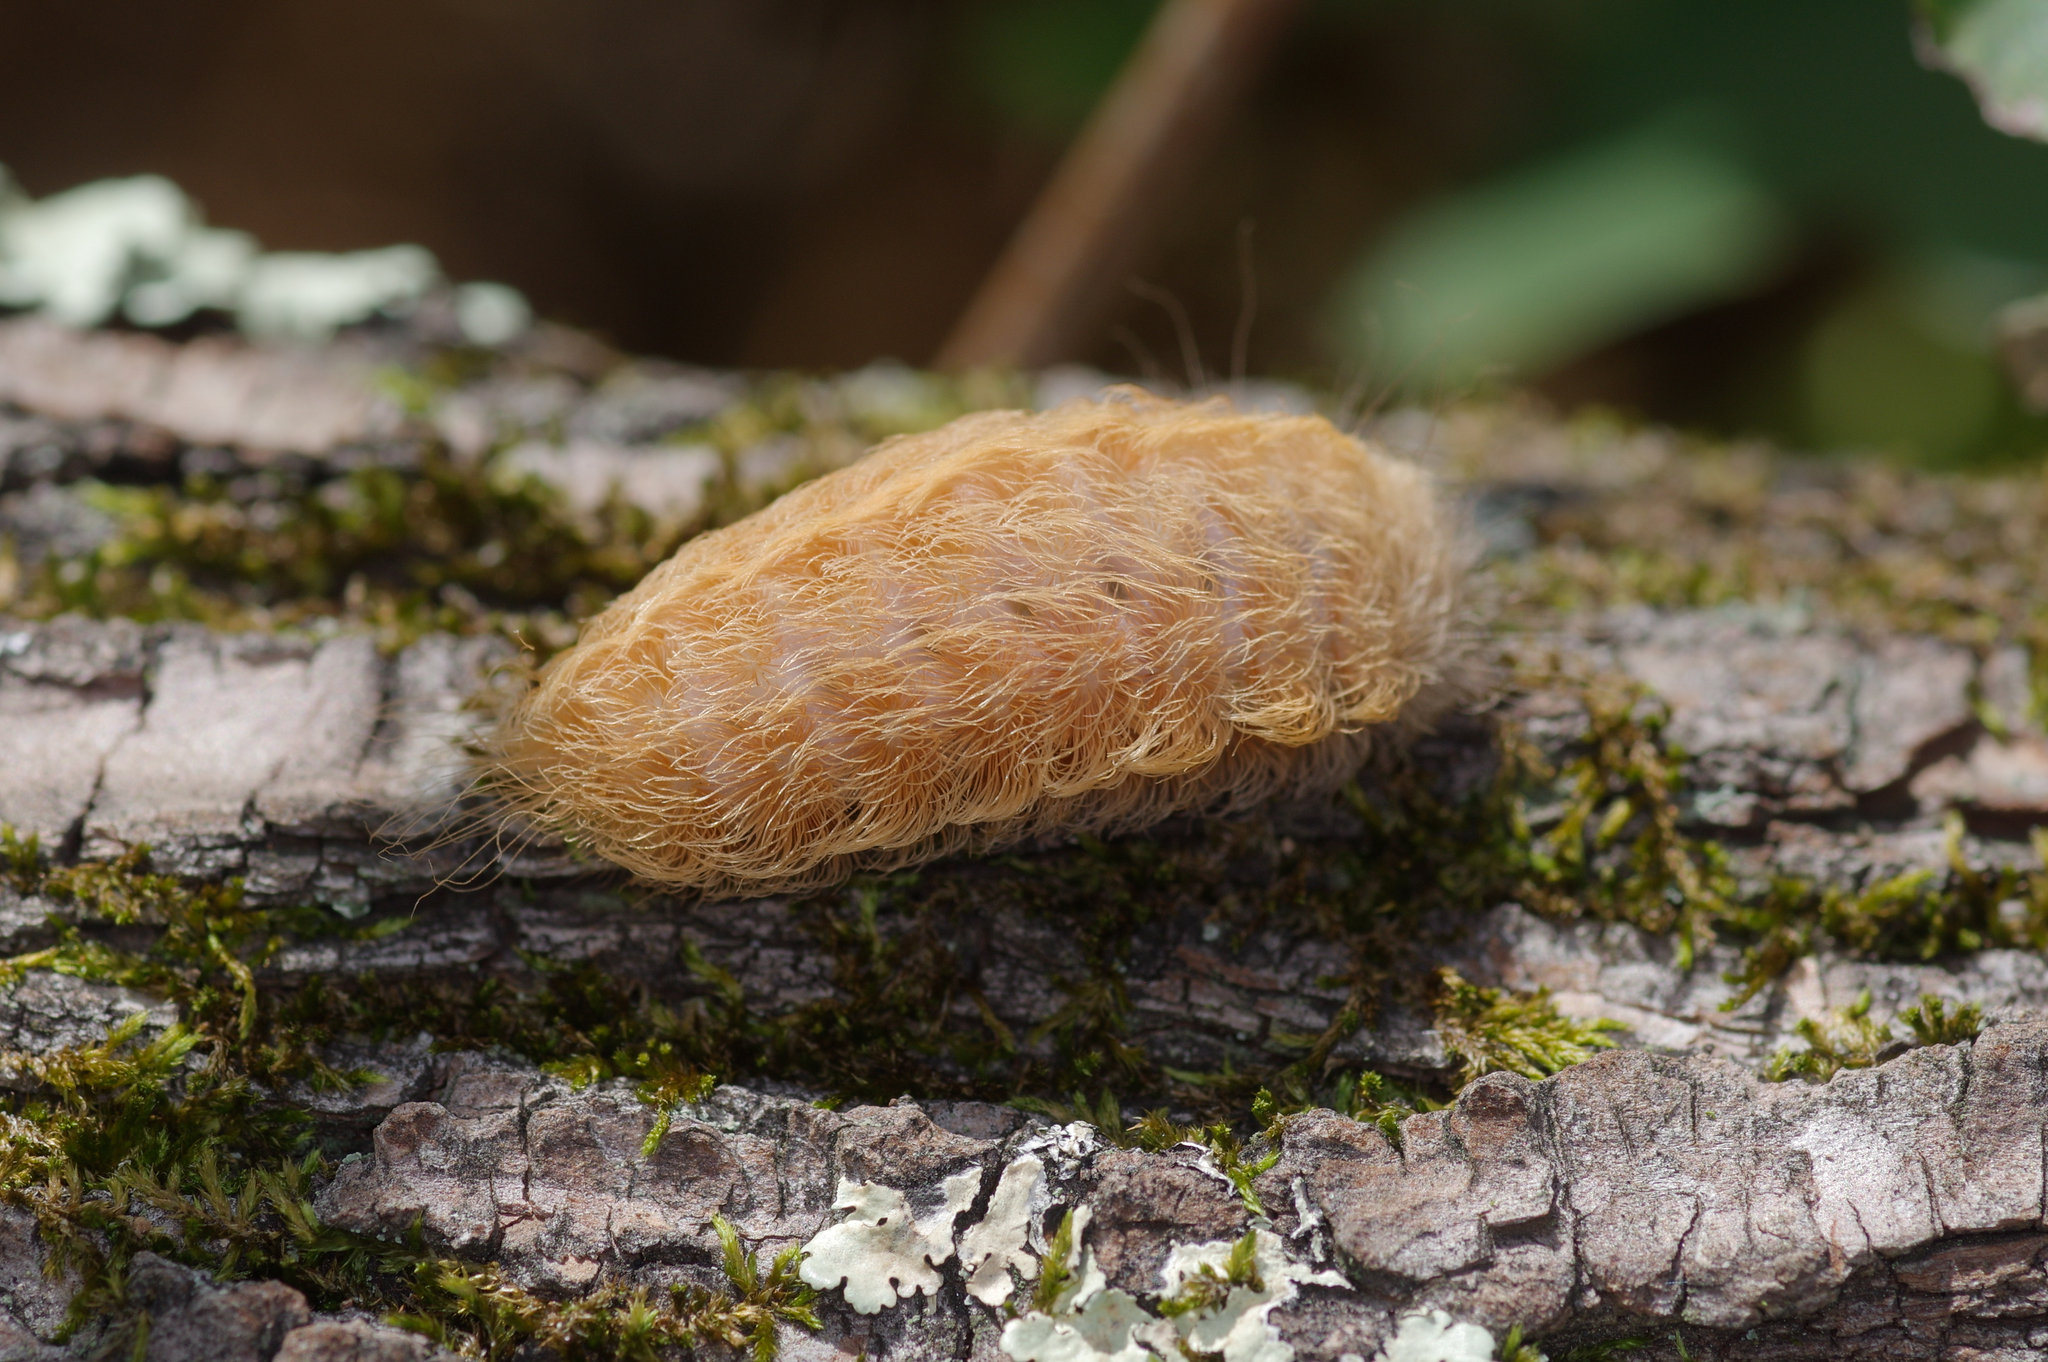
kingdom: Animalia
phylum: Arthropoda
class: Insecta
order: Lepidoptera
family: Megalopygidae
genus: Megalopyge
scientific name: Megalopyge crispata
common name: Black-waved flannel moth
